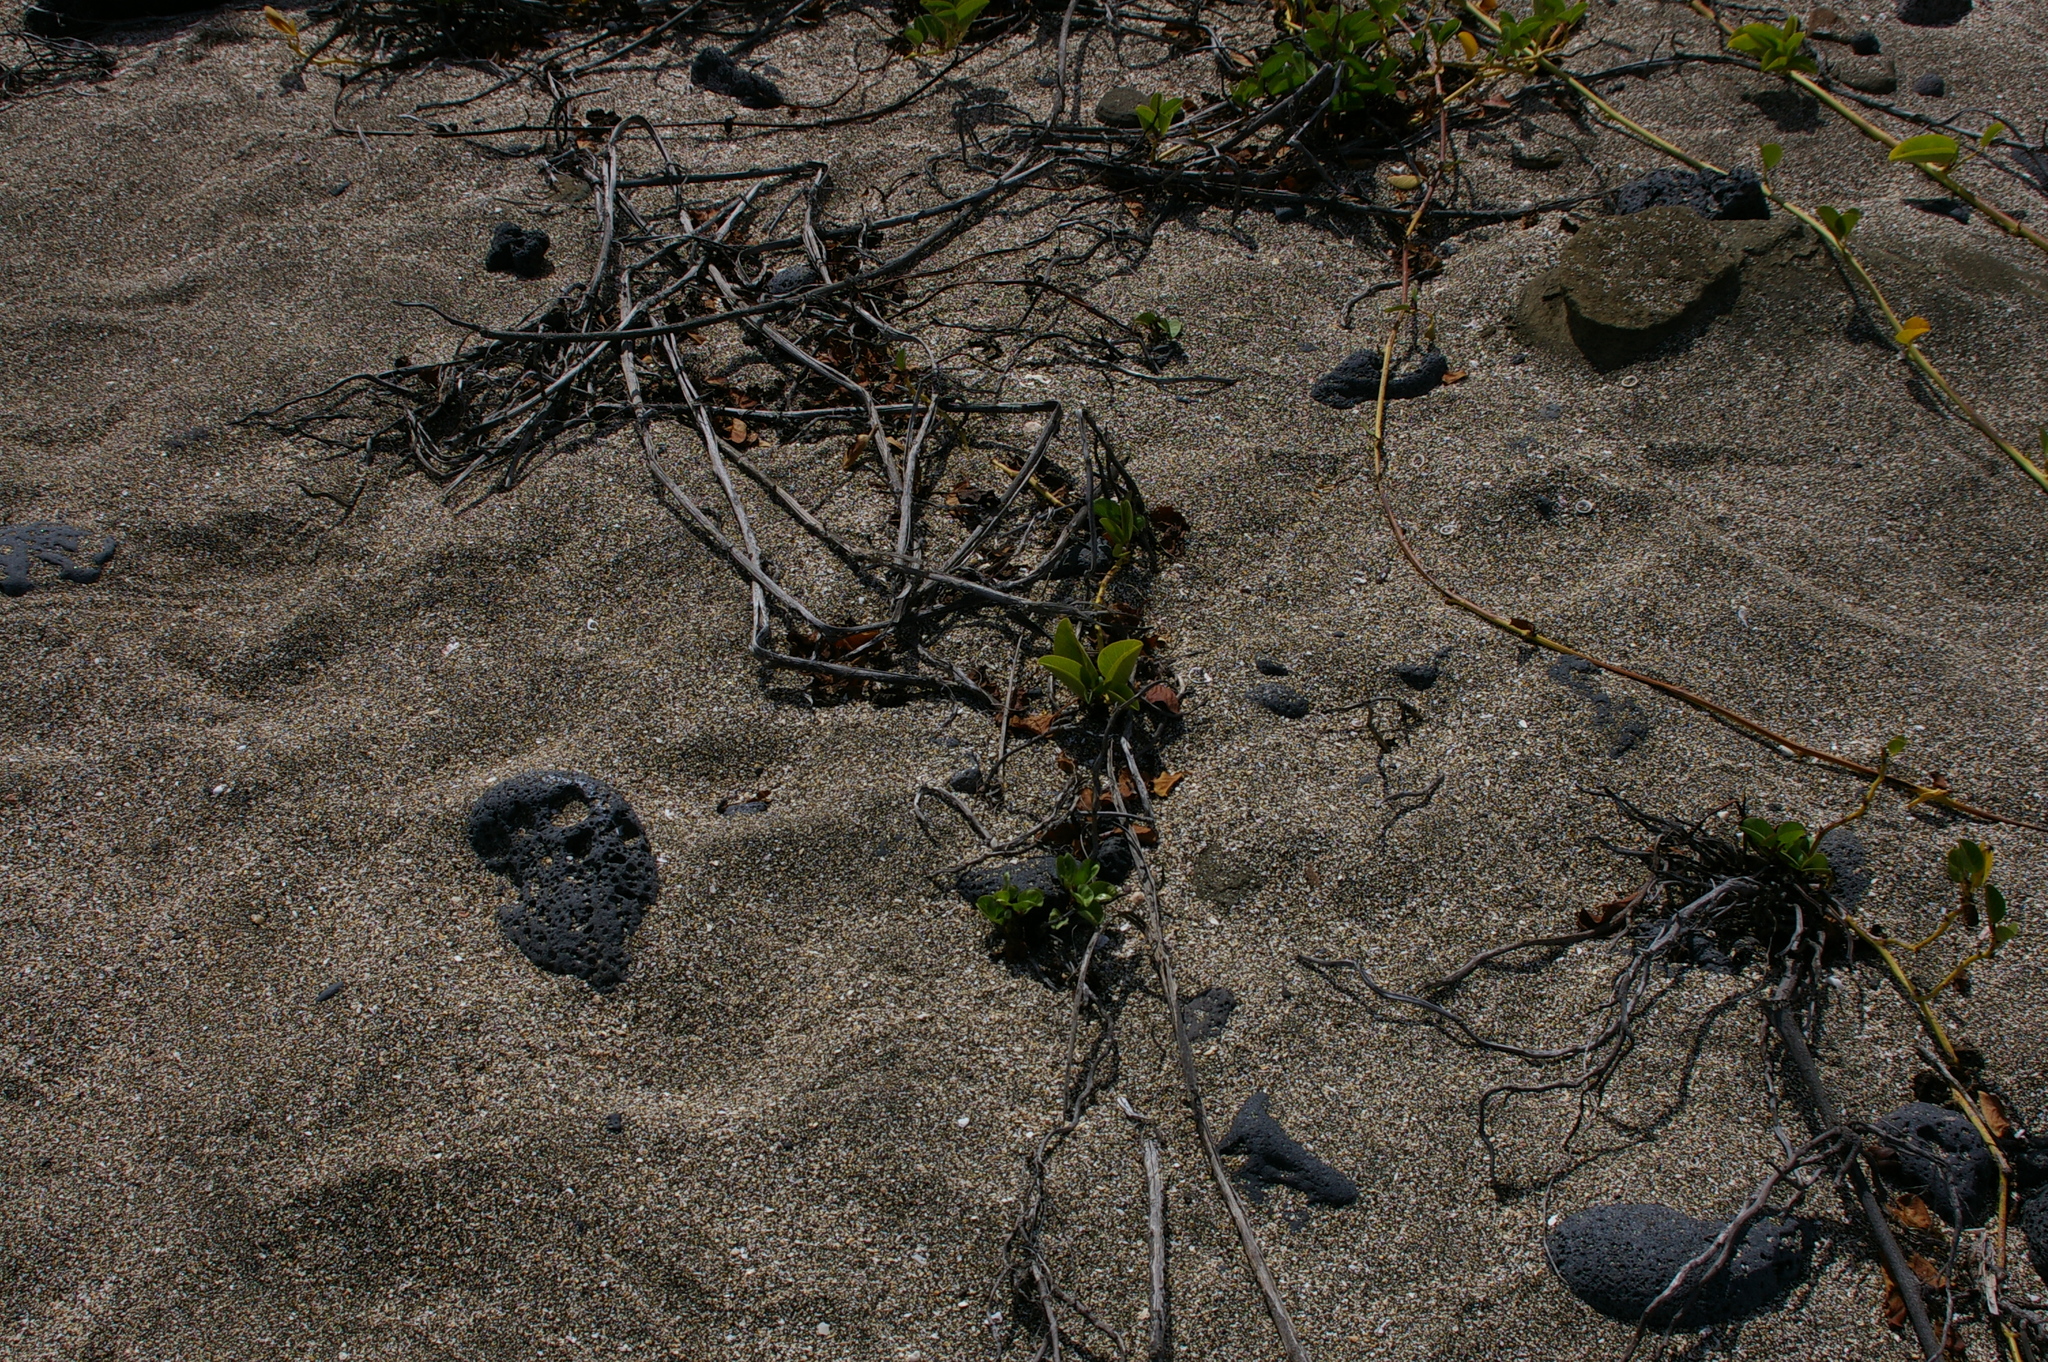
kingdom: Plantae
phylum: Tracheophyta
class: Magnoliopsida
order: Solanales
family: Convolvulaceae
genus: Ipomoea
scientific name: Ipomoea pes-caprae
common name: Beach morning glory
